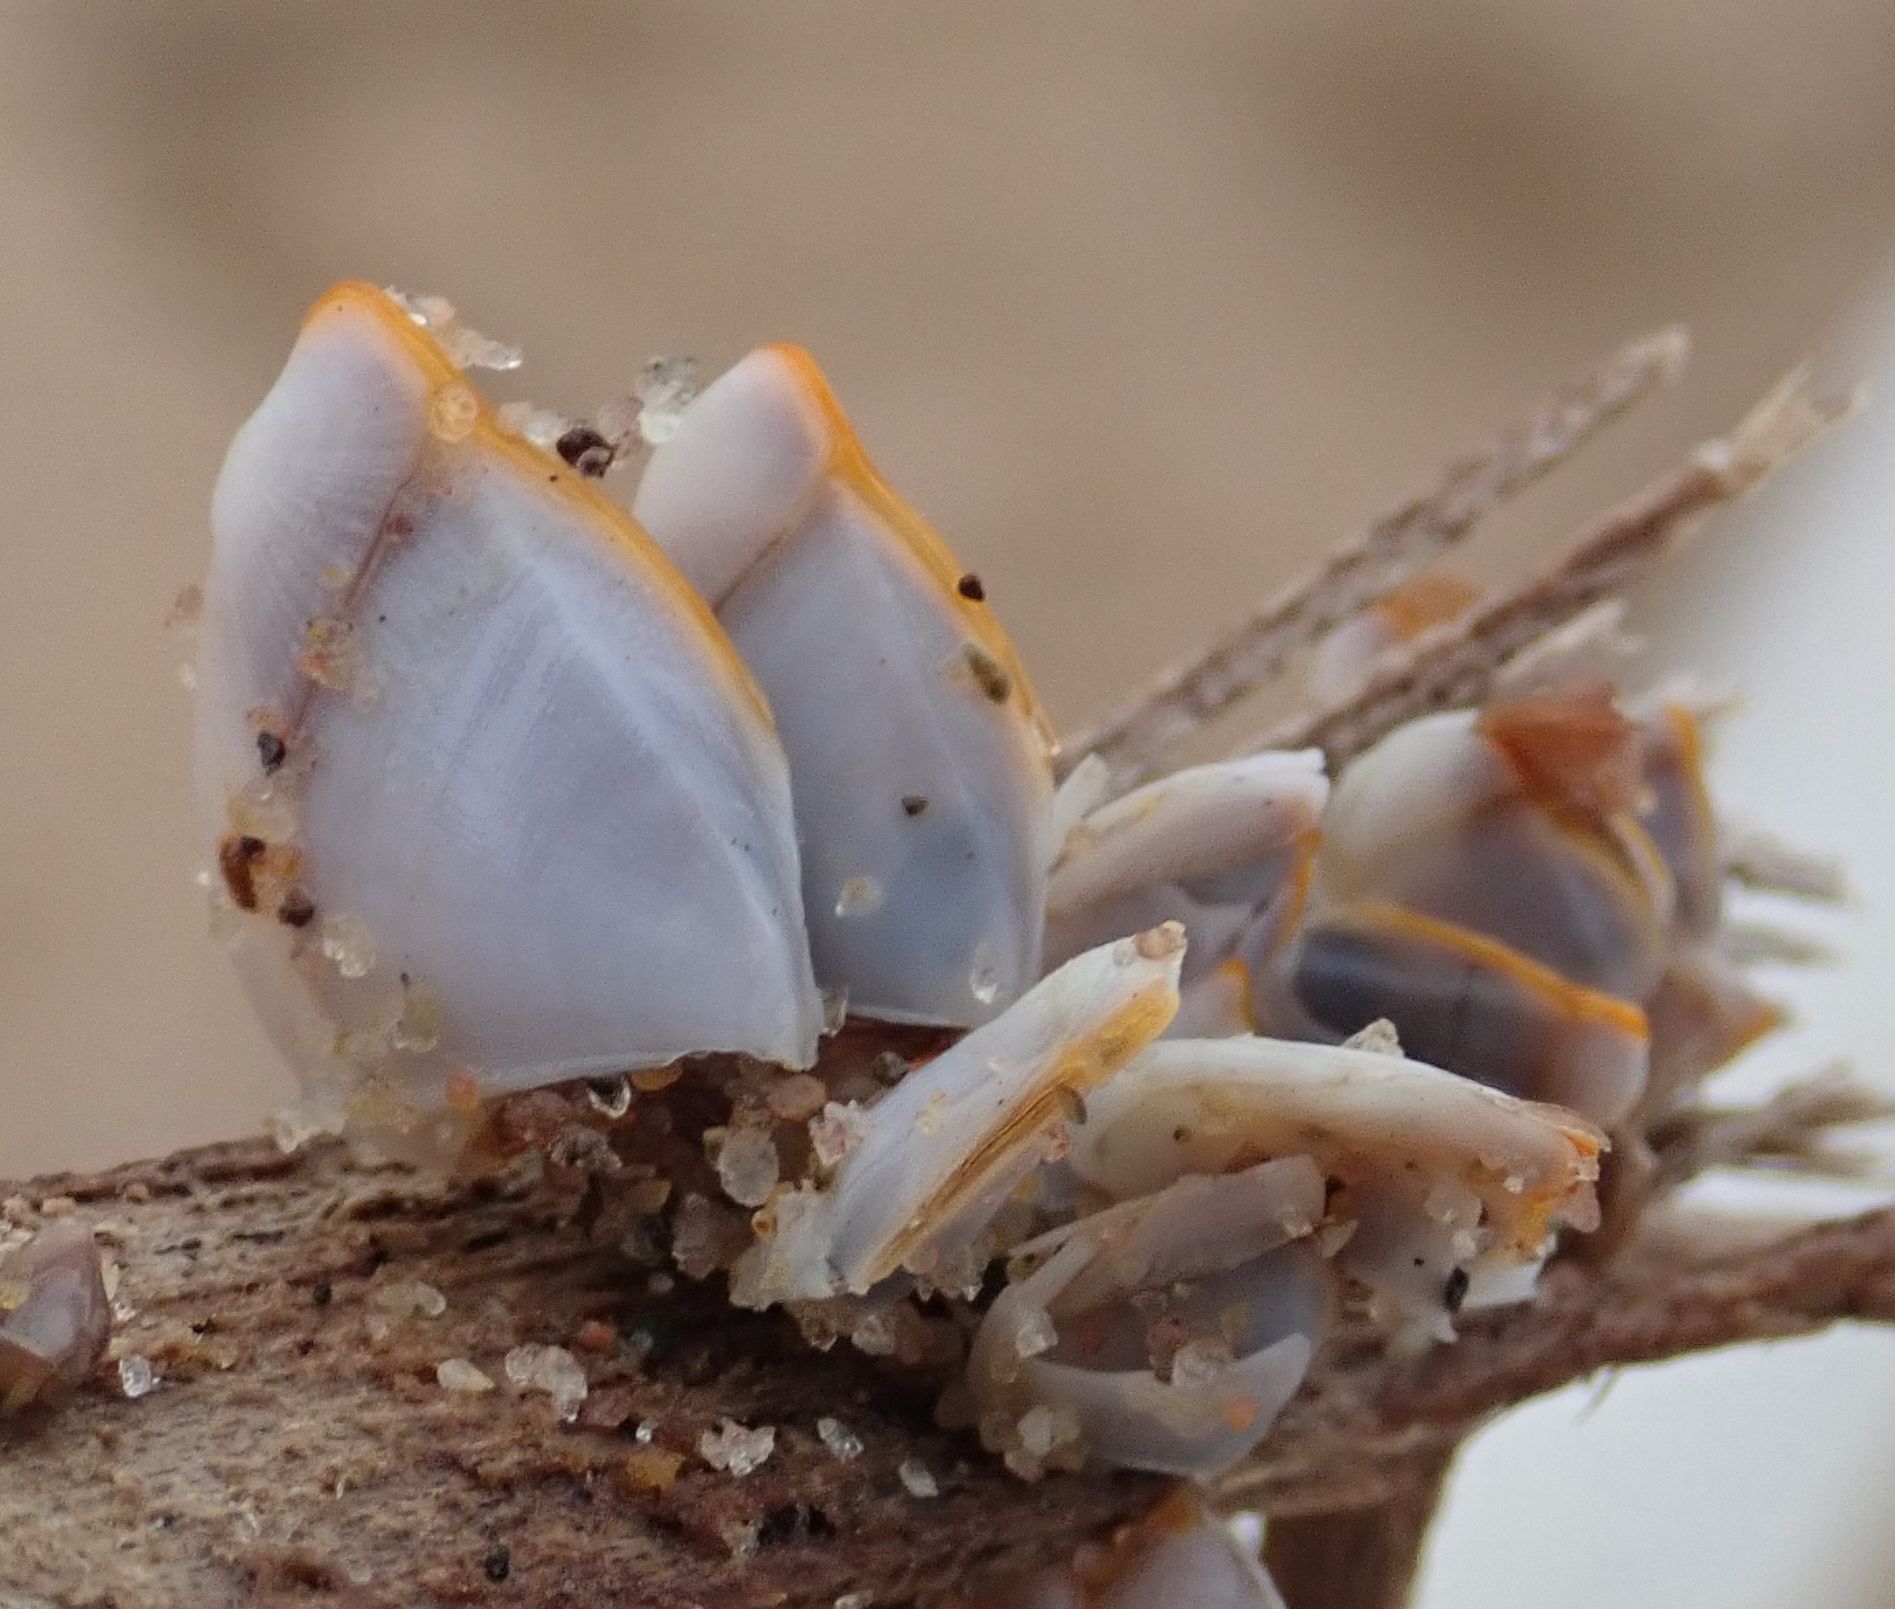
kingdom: Animalia
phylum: Arthropoda
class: Maxillopoda
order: Pedunculata
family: Lepadidae
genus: Lepas
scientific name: Lepas anserifera
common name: Goose barnacle
